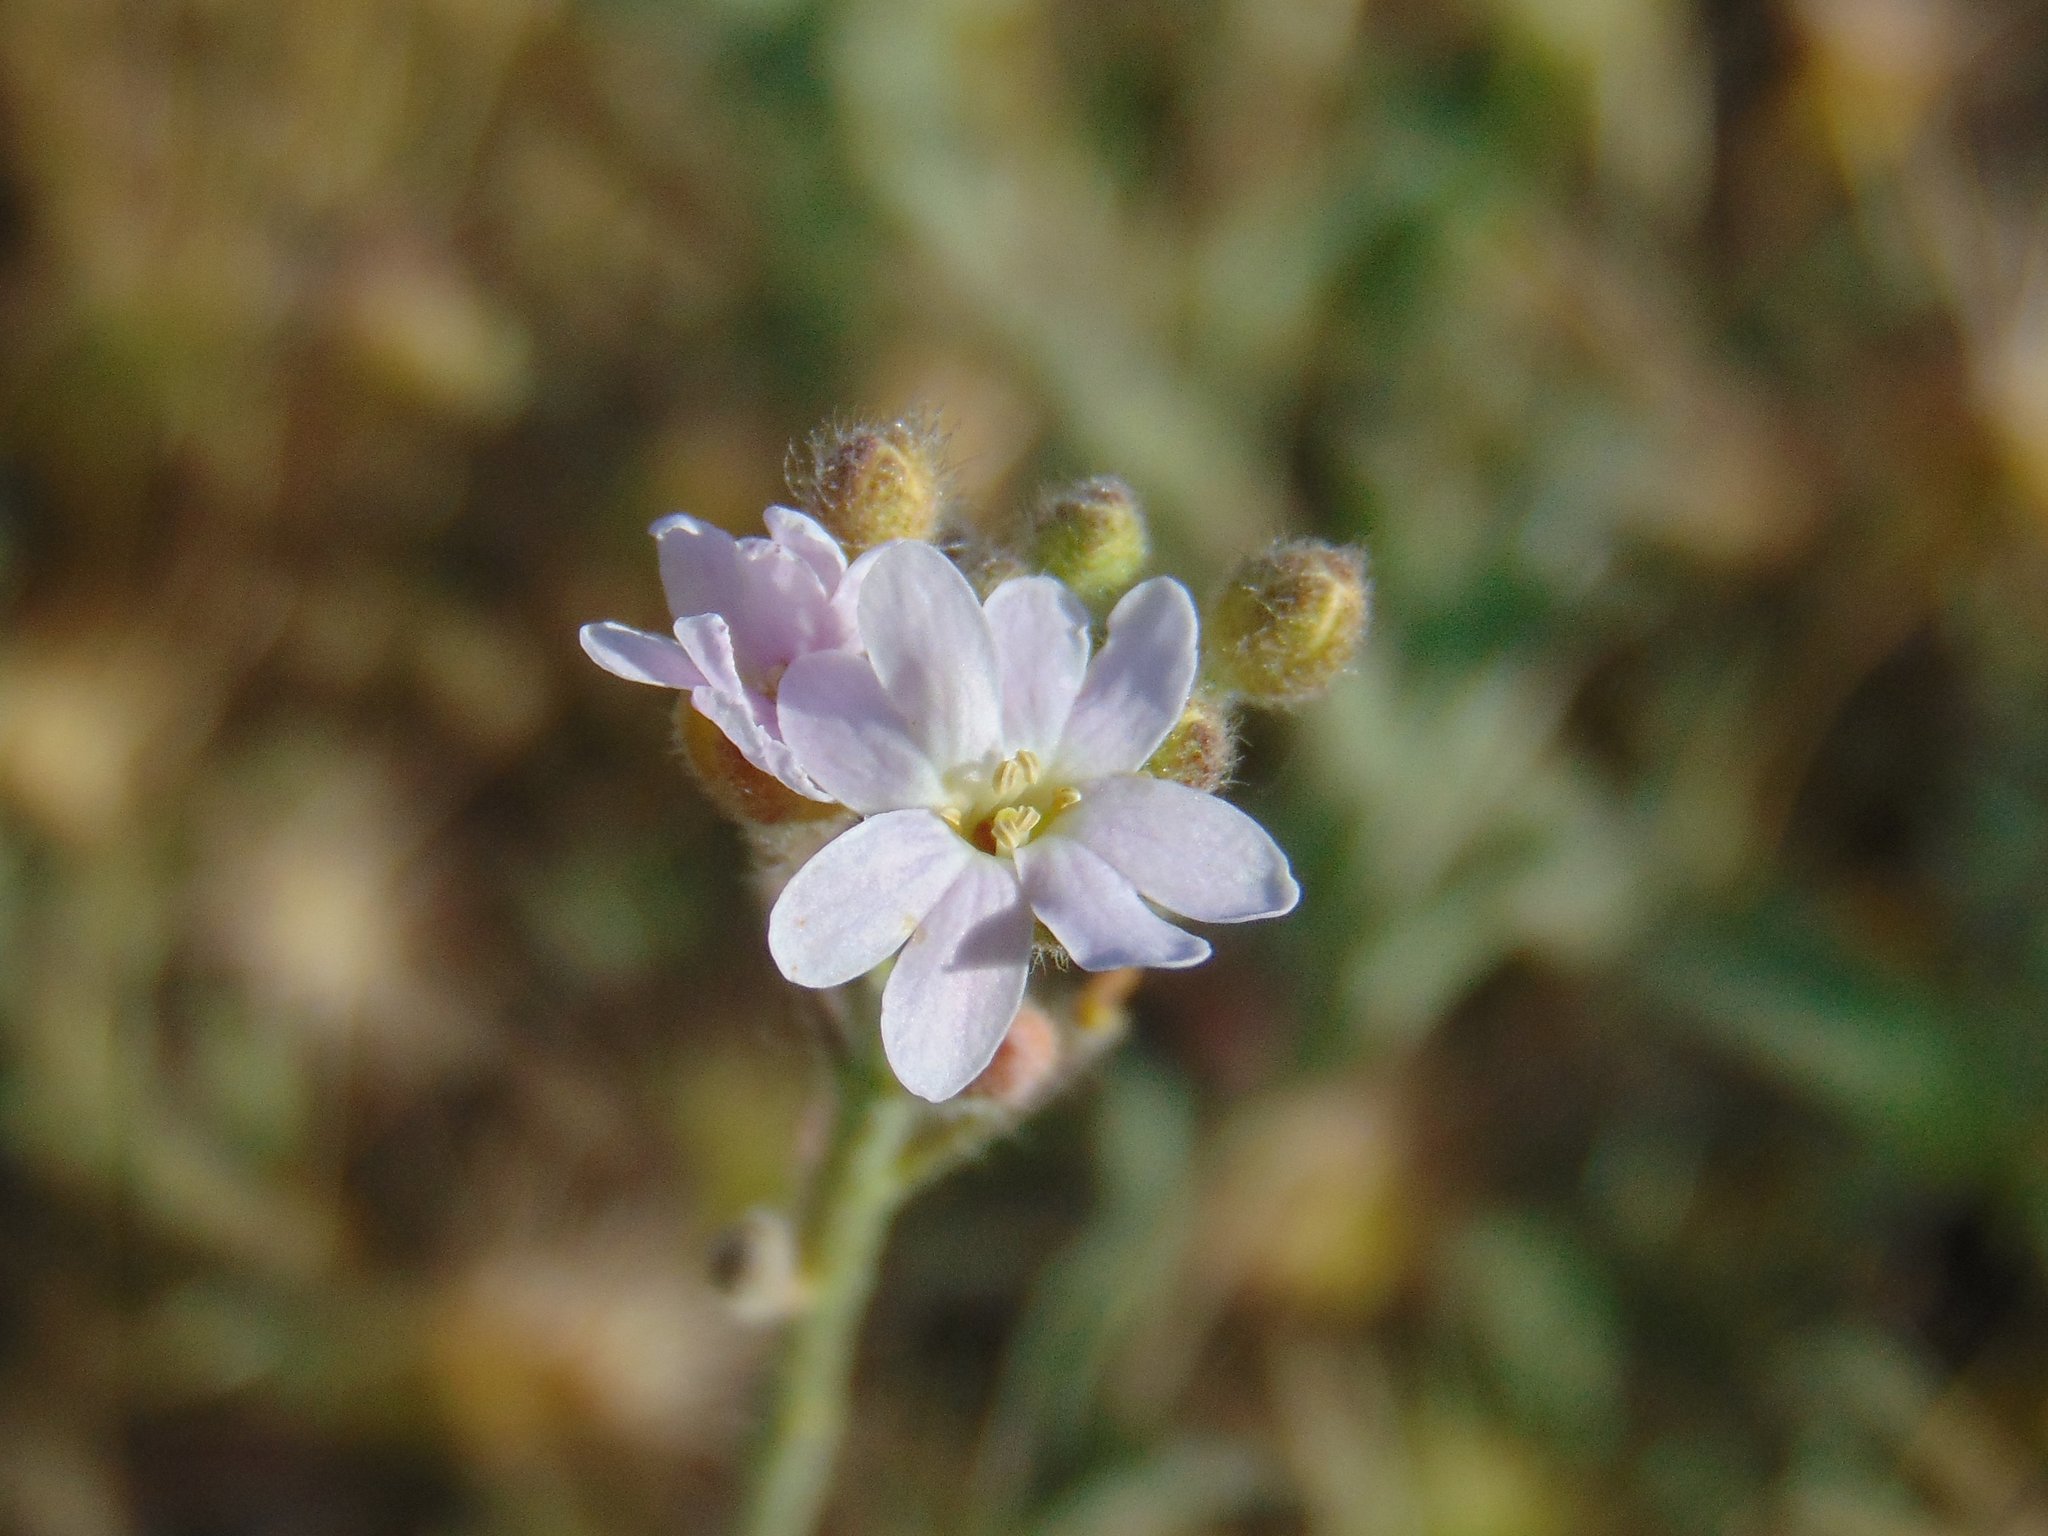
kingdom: Plantae
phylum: Tracheophyta
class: Magnoliopsida
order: Brassicales
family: Brassicaceae
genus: Berteroa
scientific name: Berteroa mutabilis
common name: Roadside false madwort
